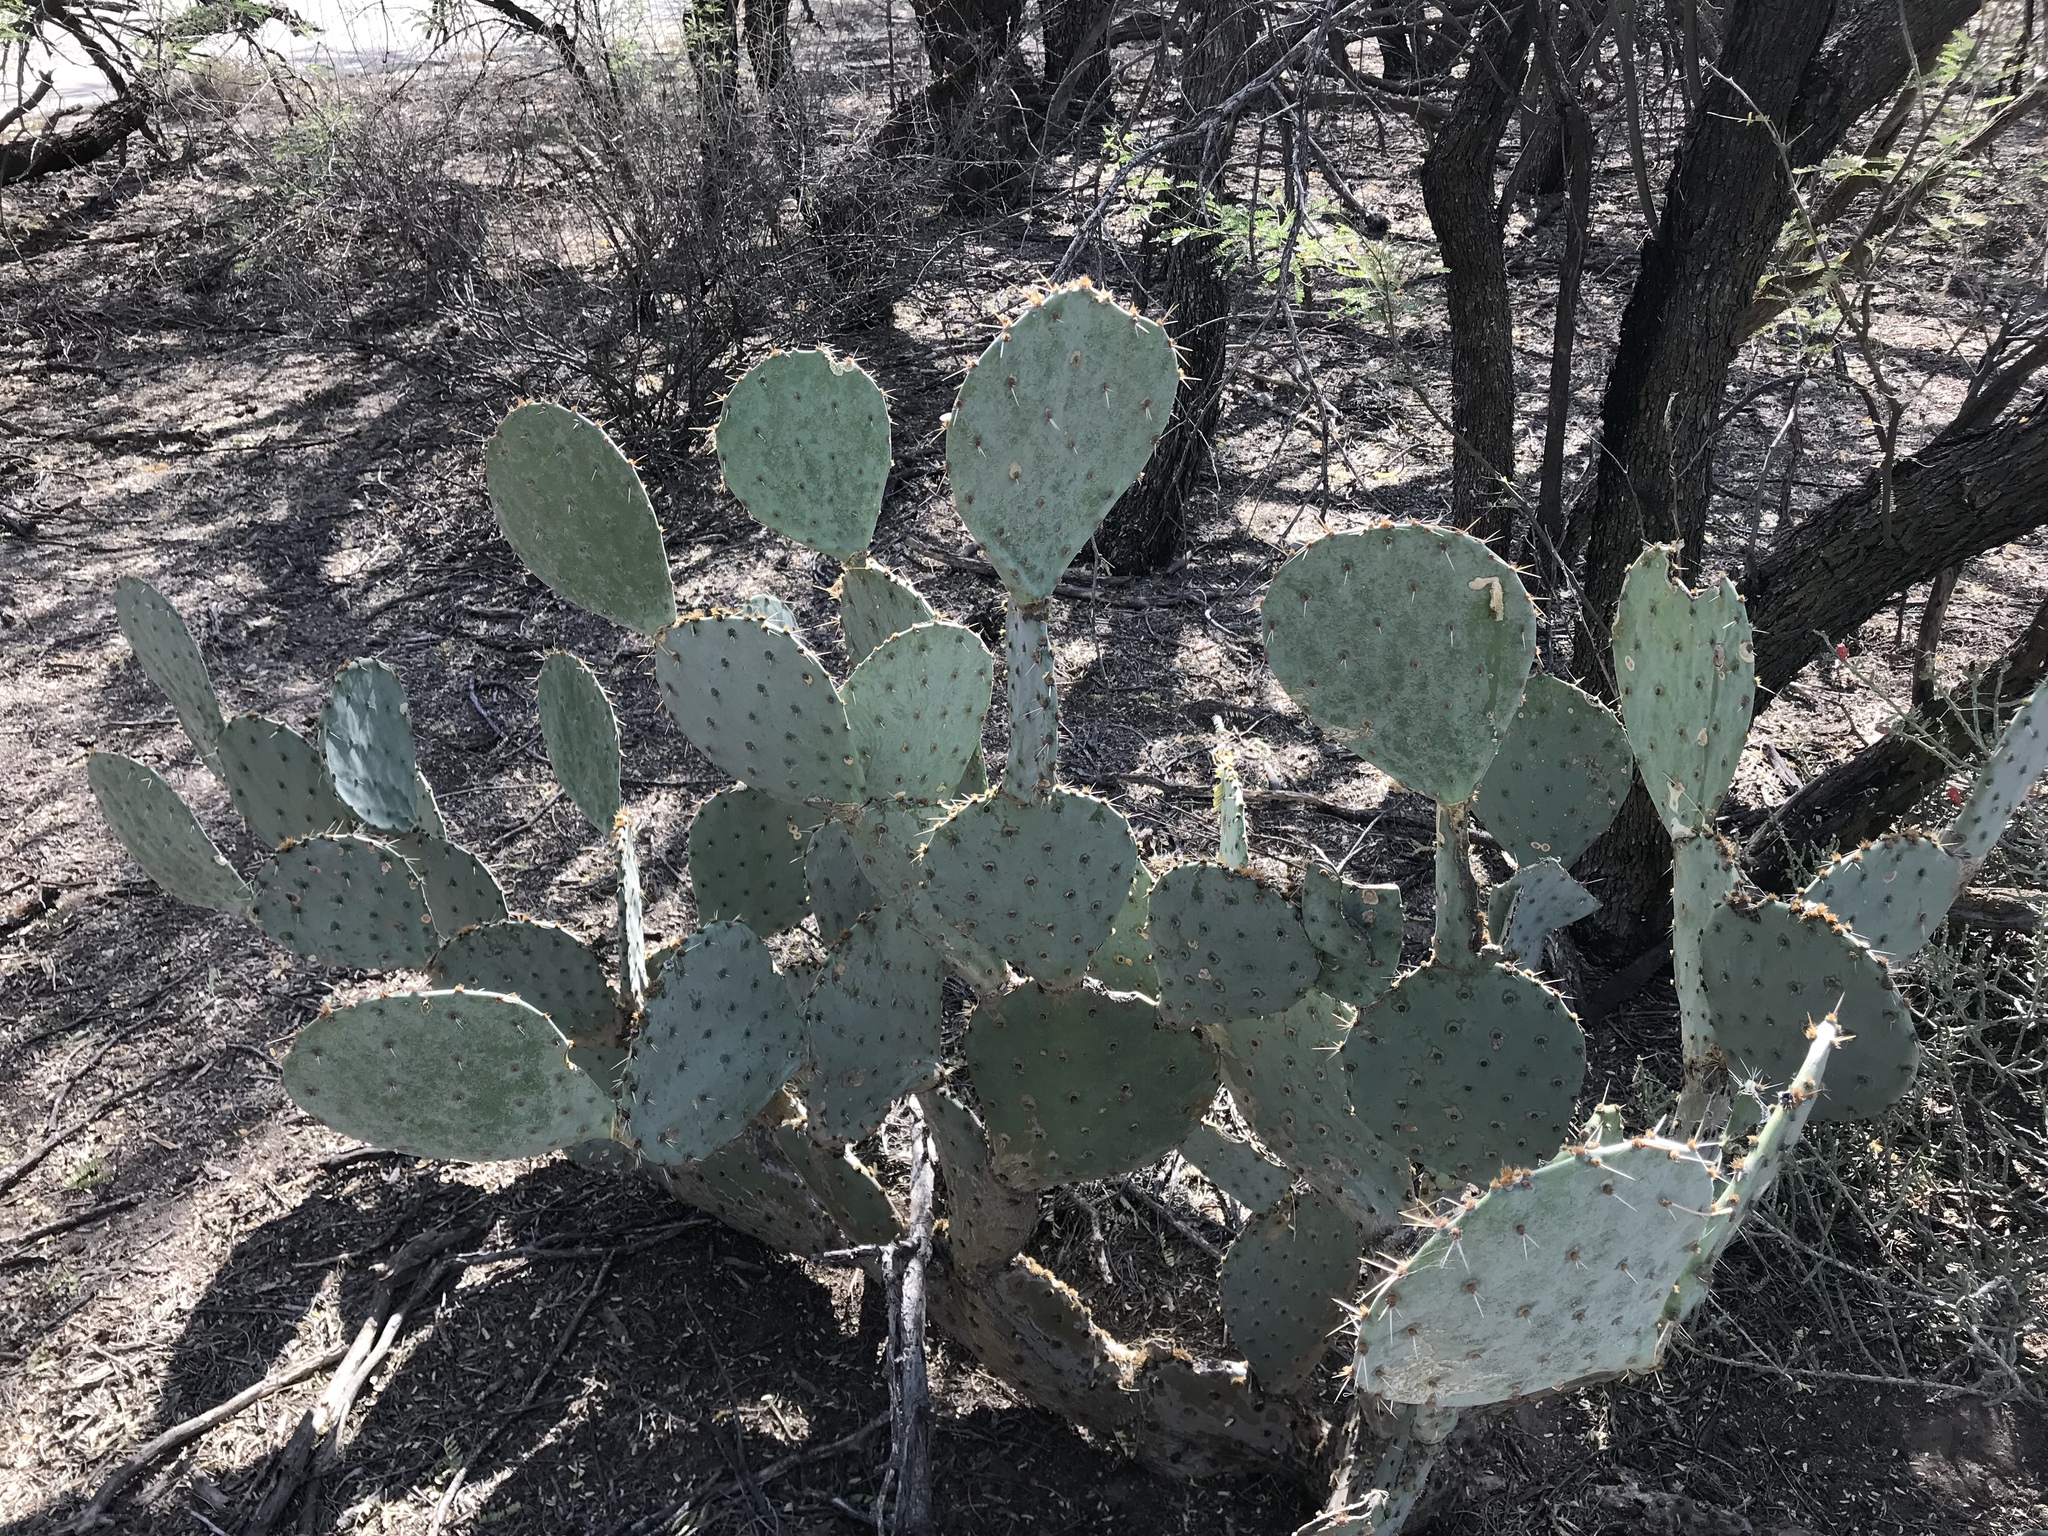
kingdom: Plantae
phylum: Tracheophyta
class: Magnoliopsida
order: Caryophyllales
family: Cactaceae
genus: Opuntia
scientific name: Opuntia engelmannii
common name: Cactus-apple
